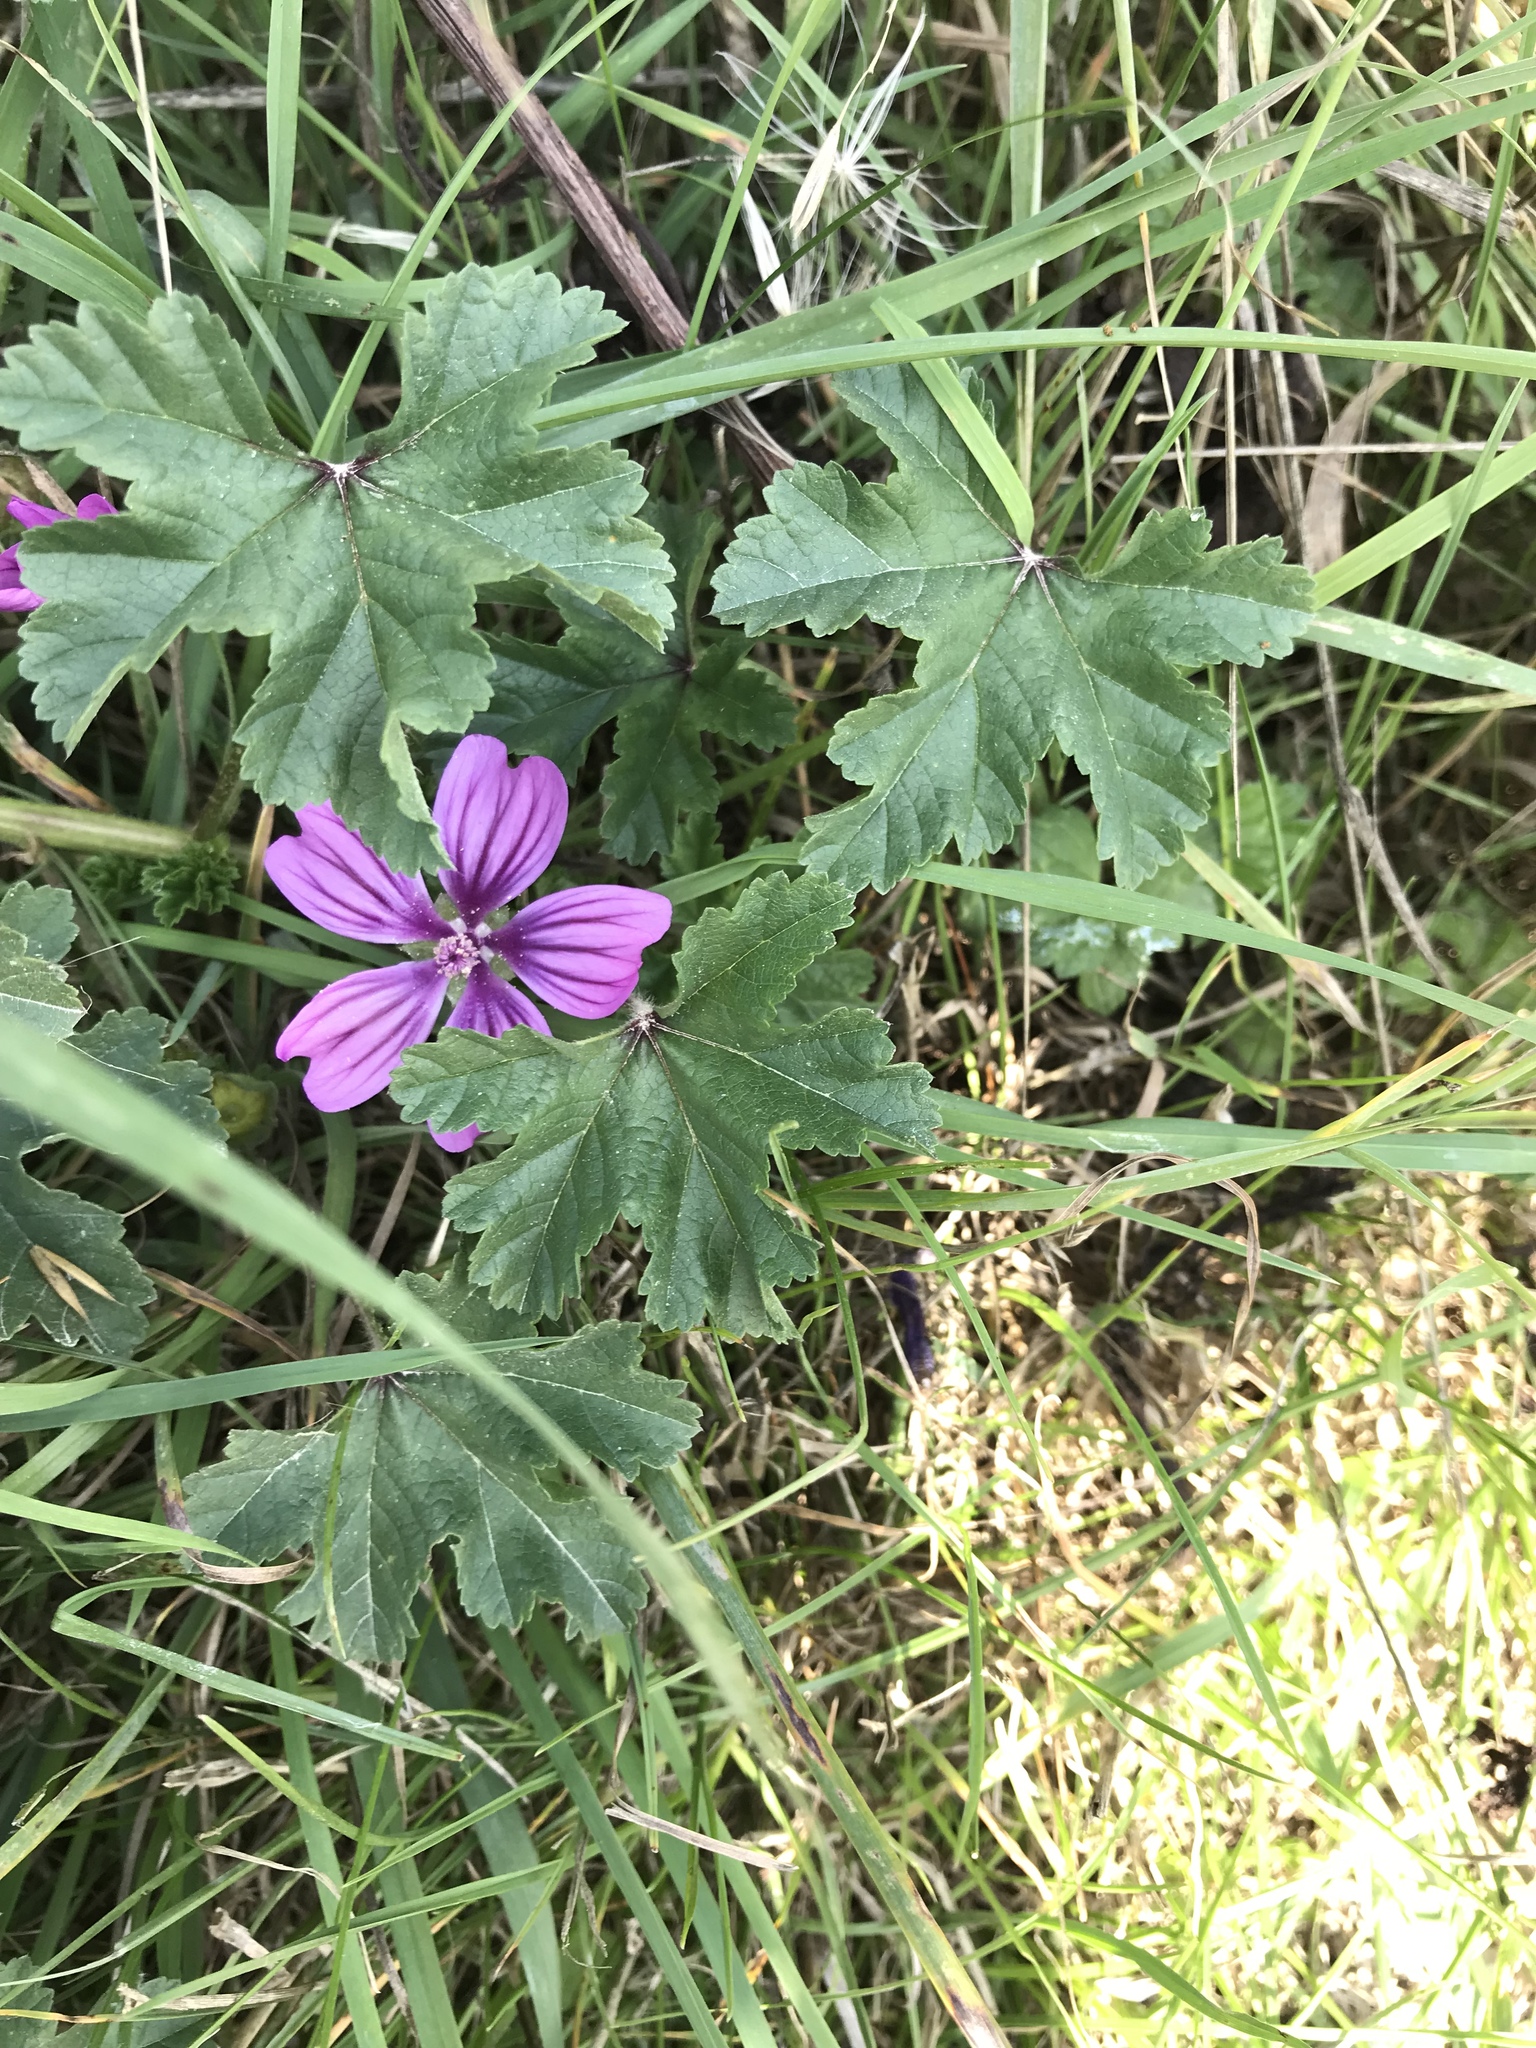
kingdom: Plantae
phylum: Tracheophyta
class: Magnoliopsida
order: Malvales
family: Malvaceae
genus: Malva
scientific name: Malva sylvestris
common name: Common mallow
